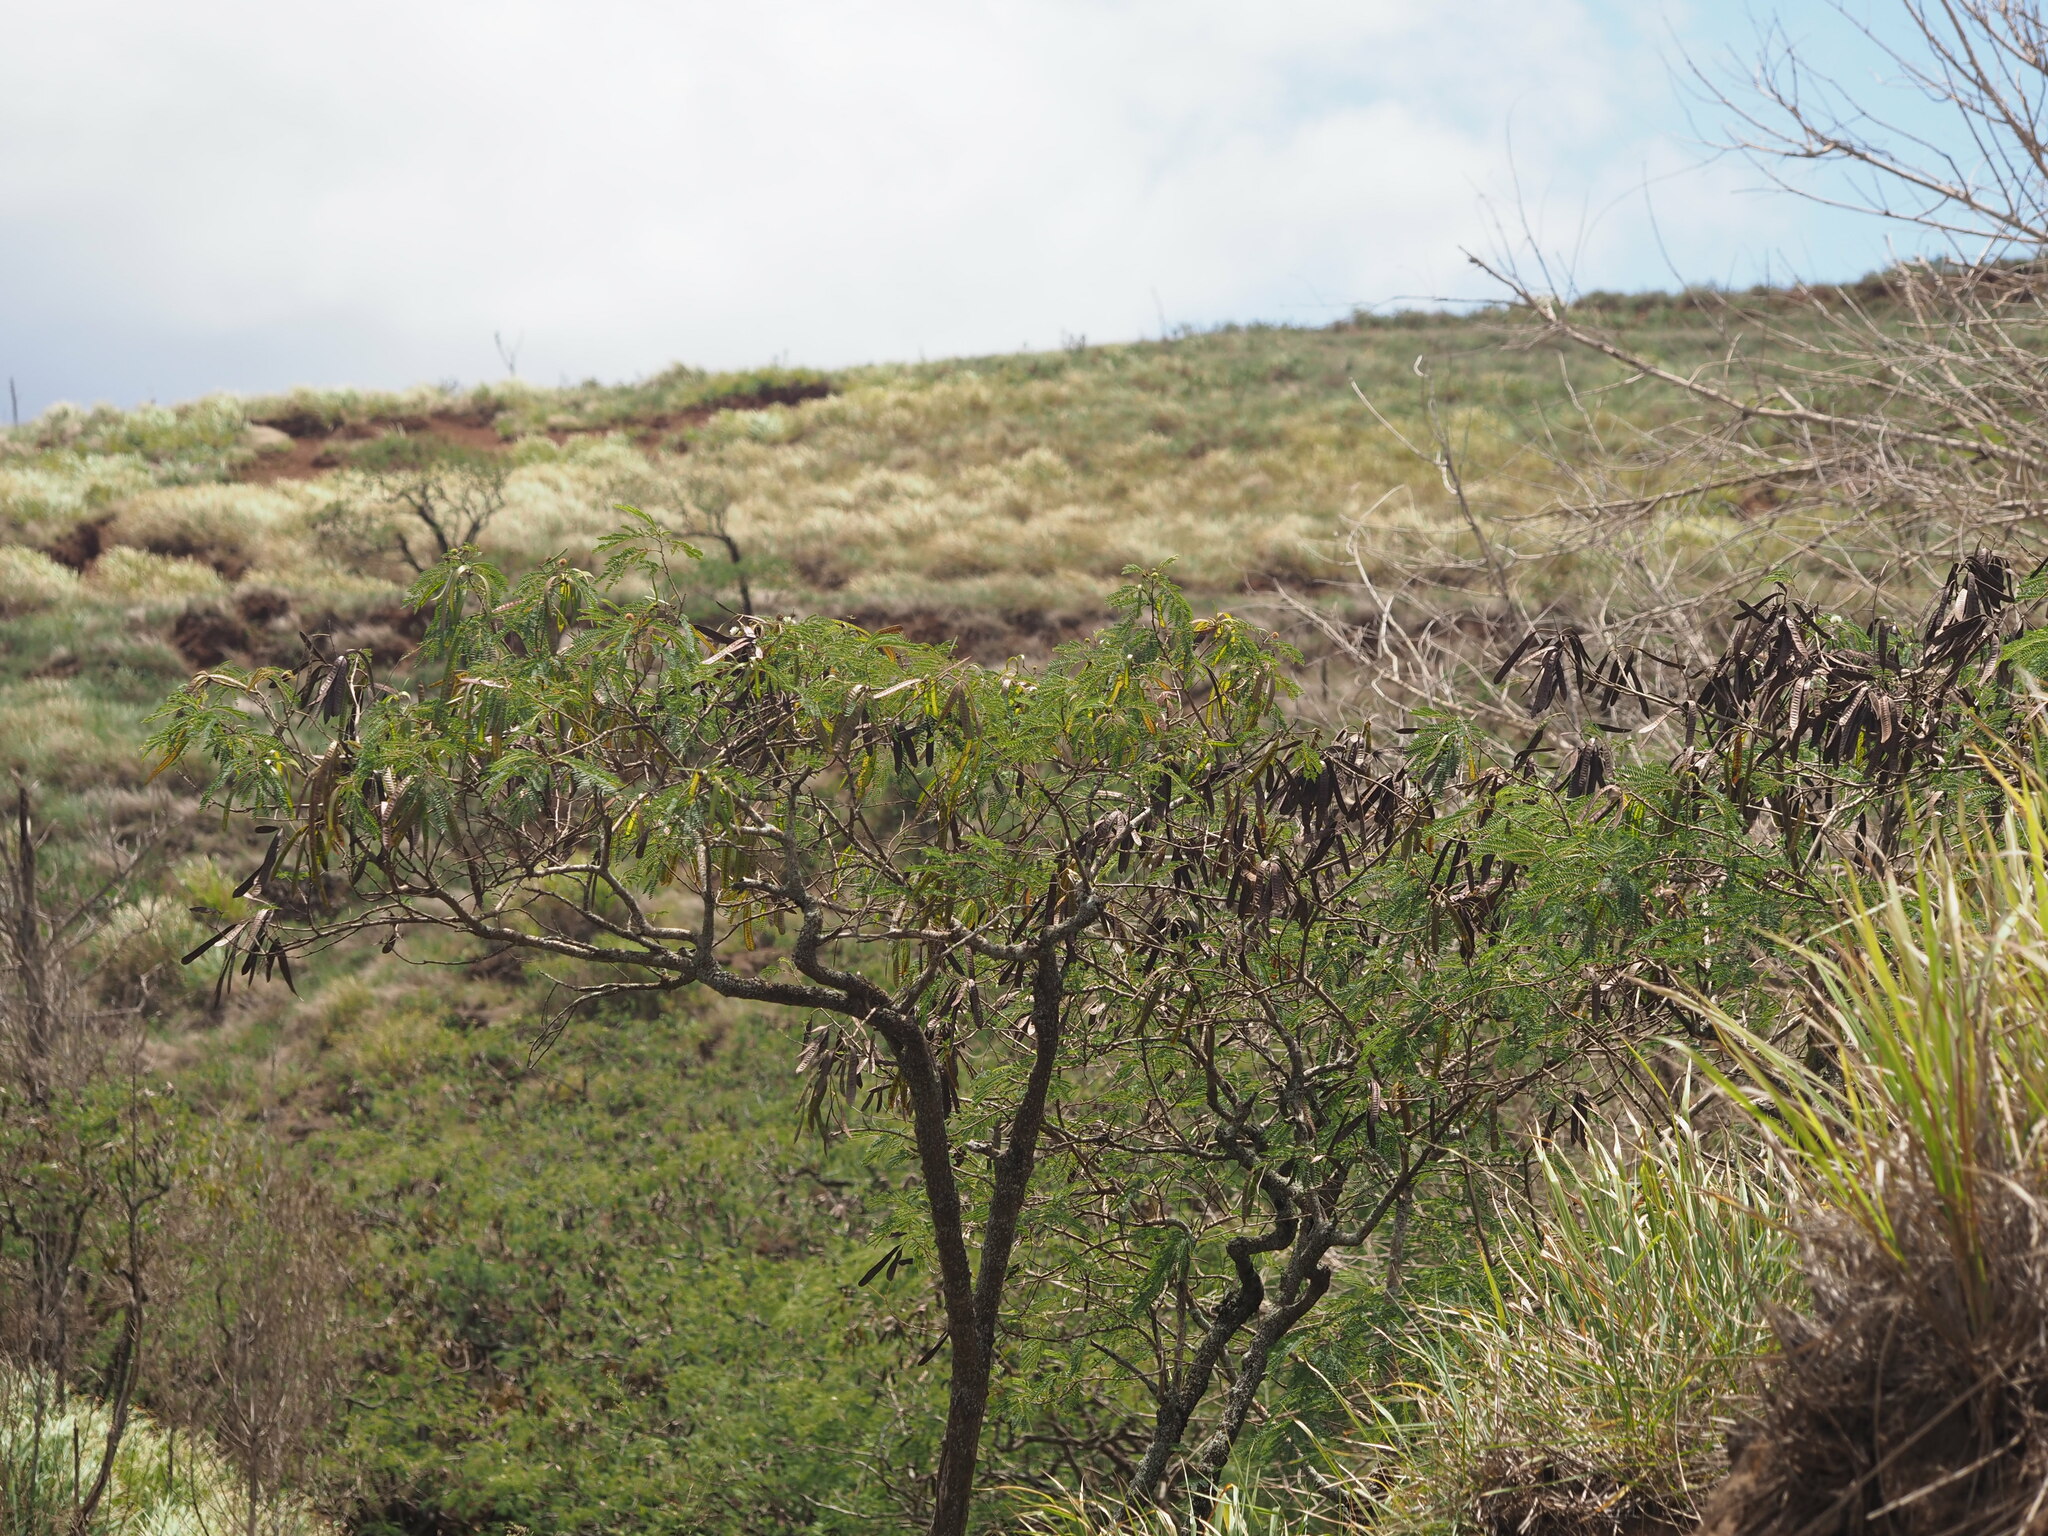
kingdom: Plantae
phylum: Tracheophyta
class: Magnoliopsida
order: Fabales
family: Fabaceae
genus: Leucaena
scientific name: Leucaena leucocephala
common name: White leadtree
